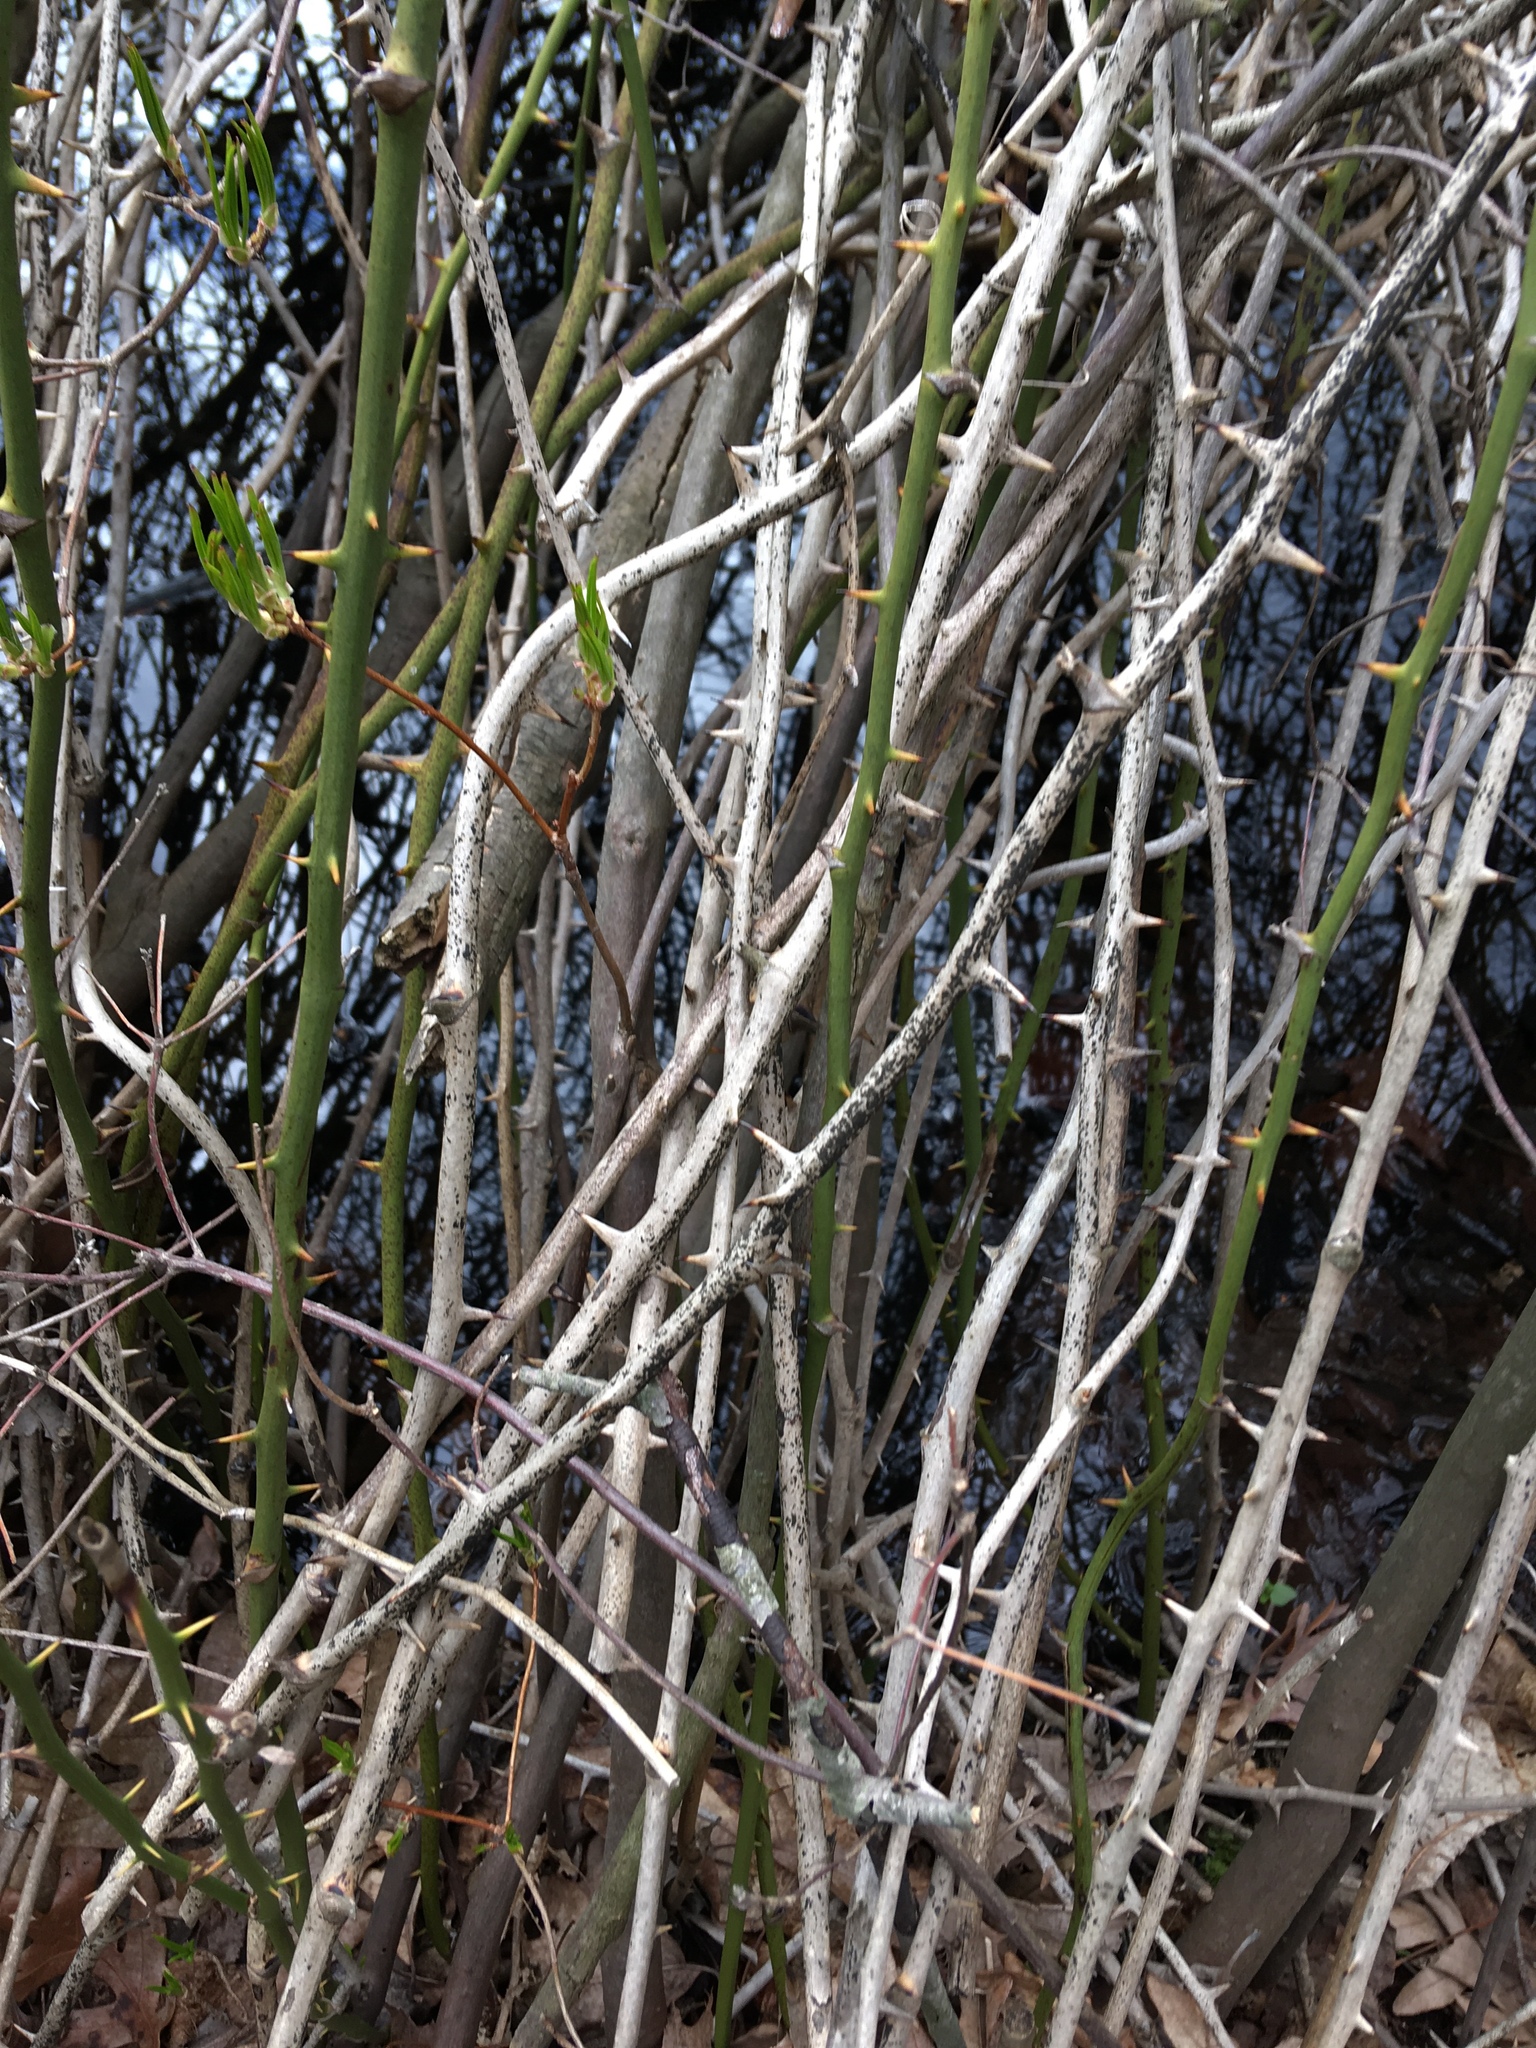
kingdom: Plantae
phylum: Tracheophyta
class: Liliopsida
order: Liliales
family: Smilacaceae
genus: Smilax
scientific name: Smilax rotundifolia
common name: Bullbriar
